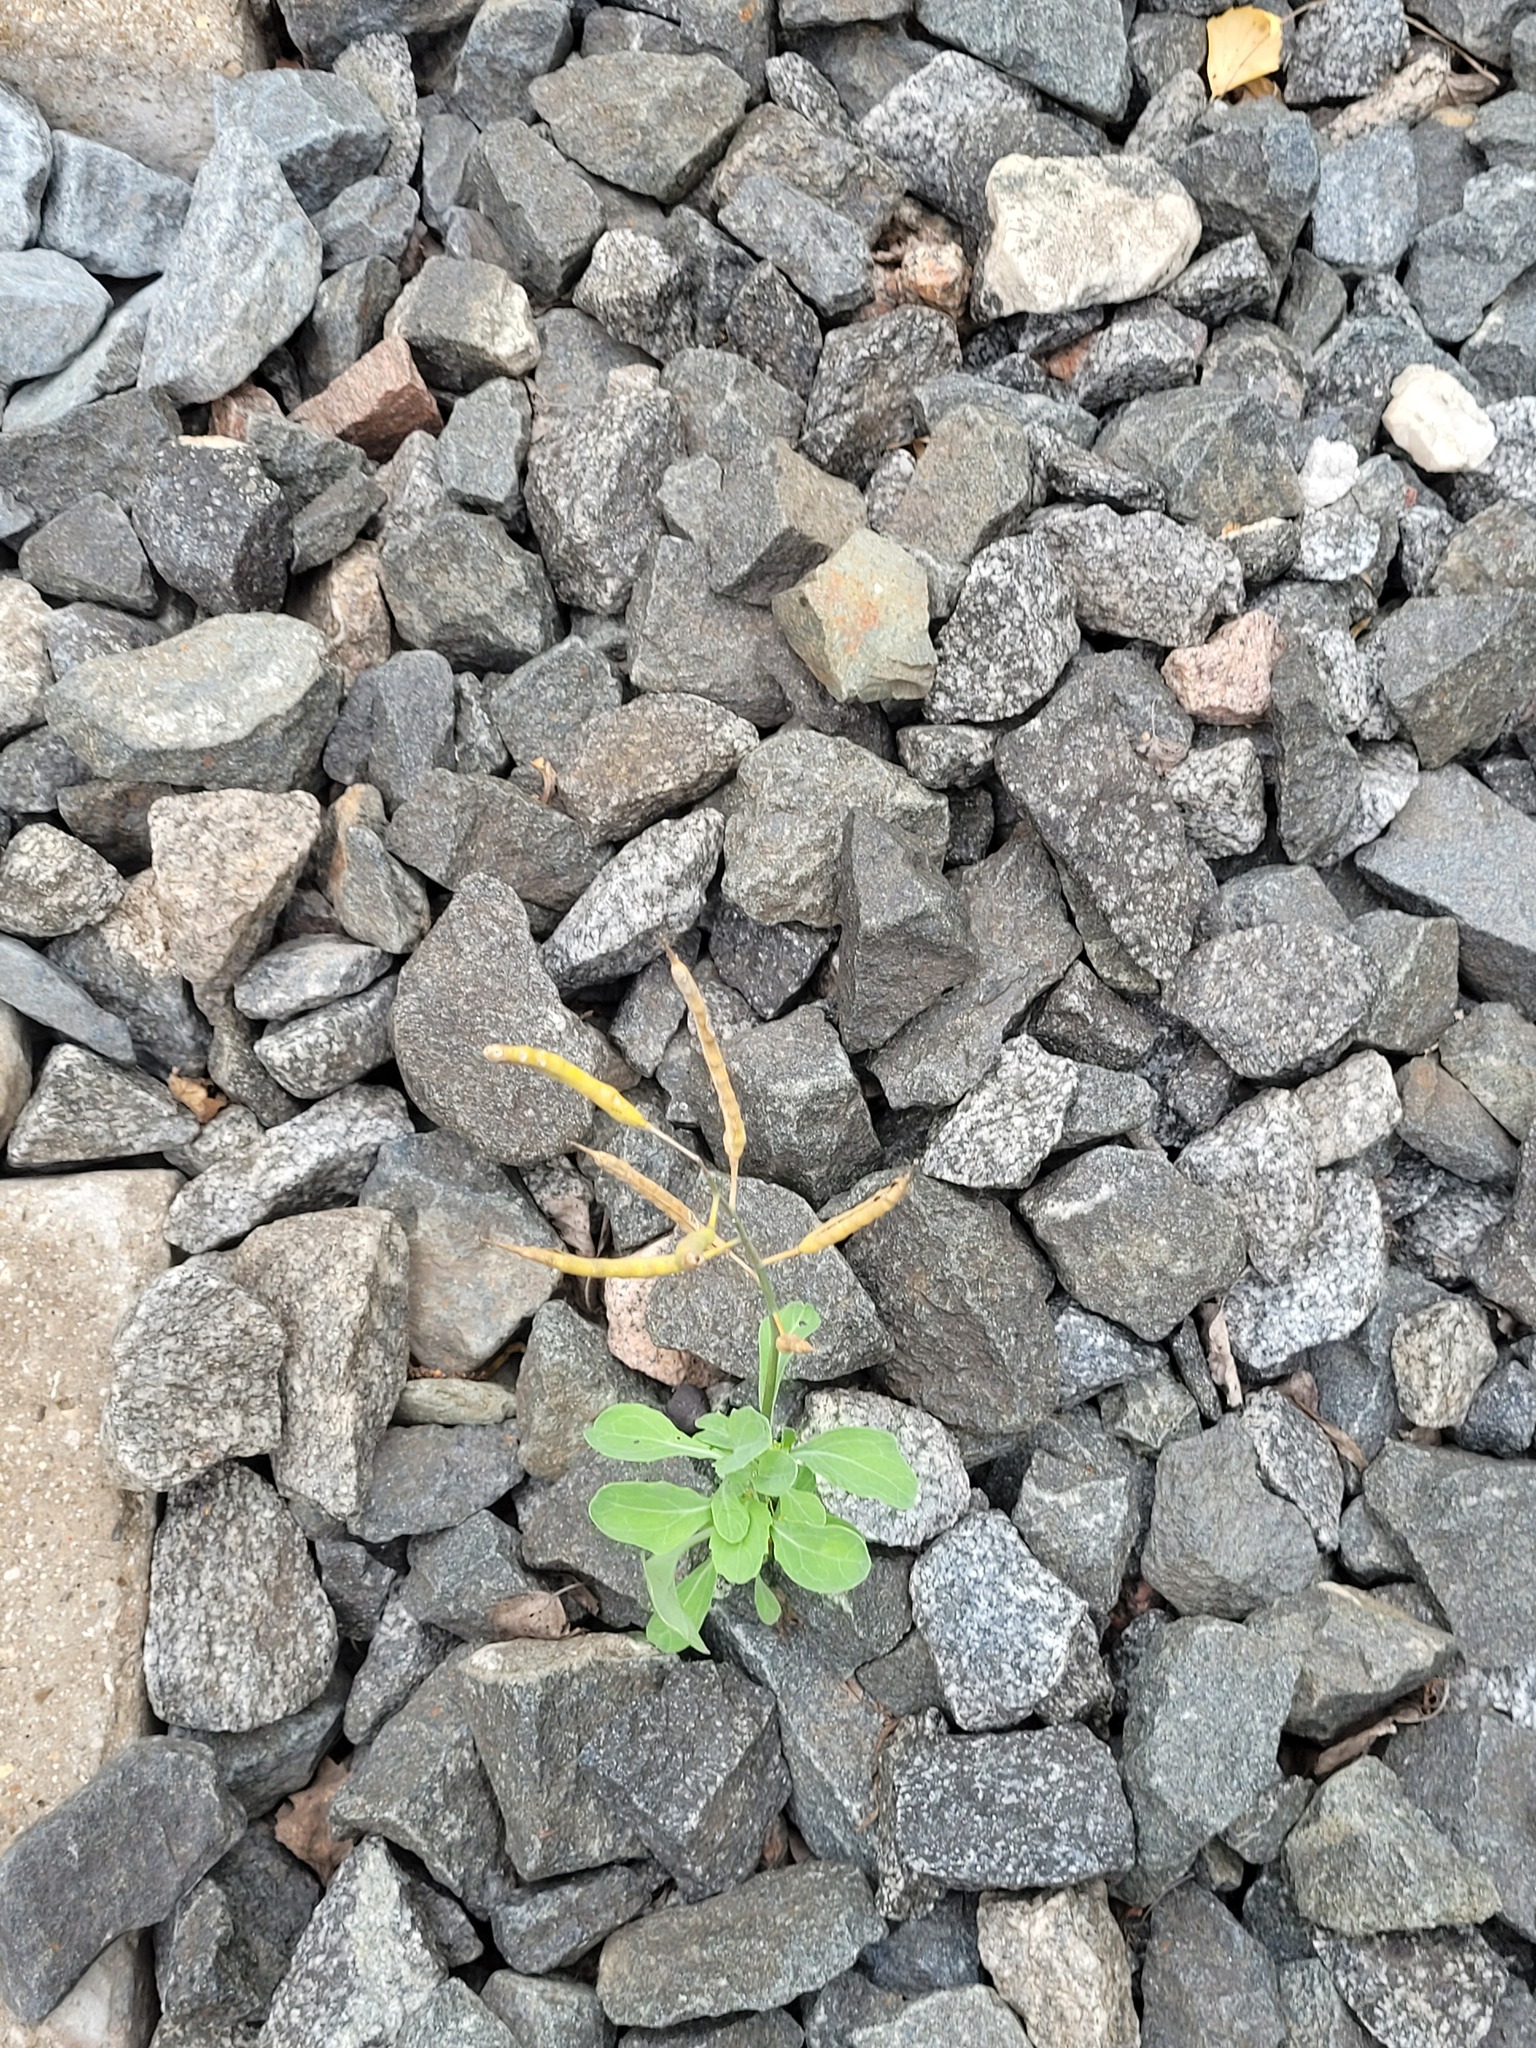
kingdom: Plantae
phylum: Tracheophyta
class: Magnoliopsida
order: Brassicales
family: Brassicaceae
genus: Brassica
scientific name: Brassica napus
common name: Rape
